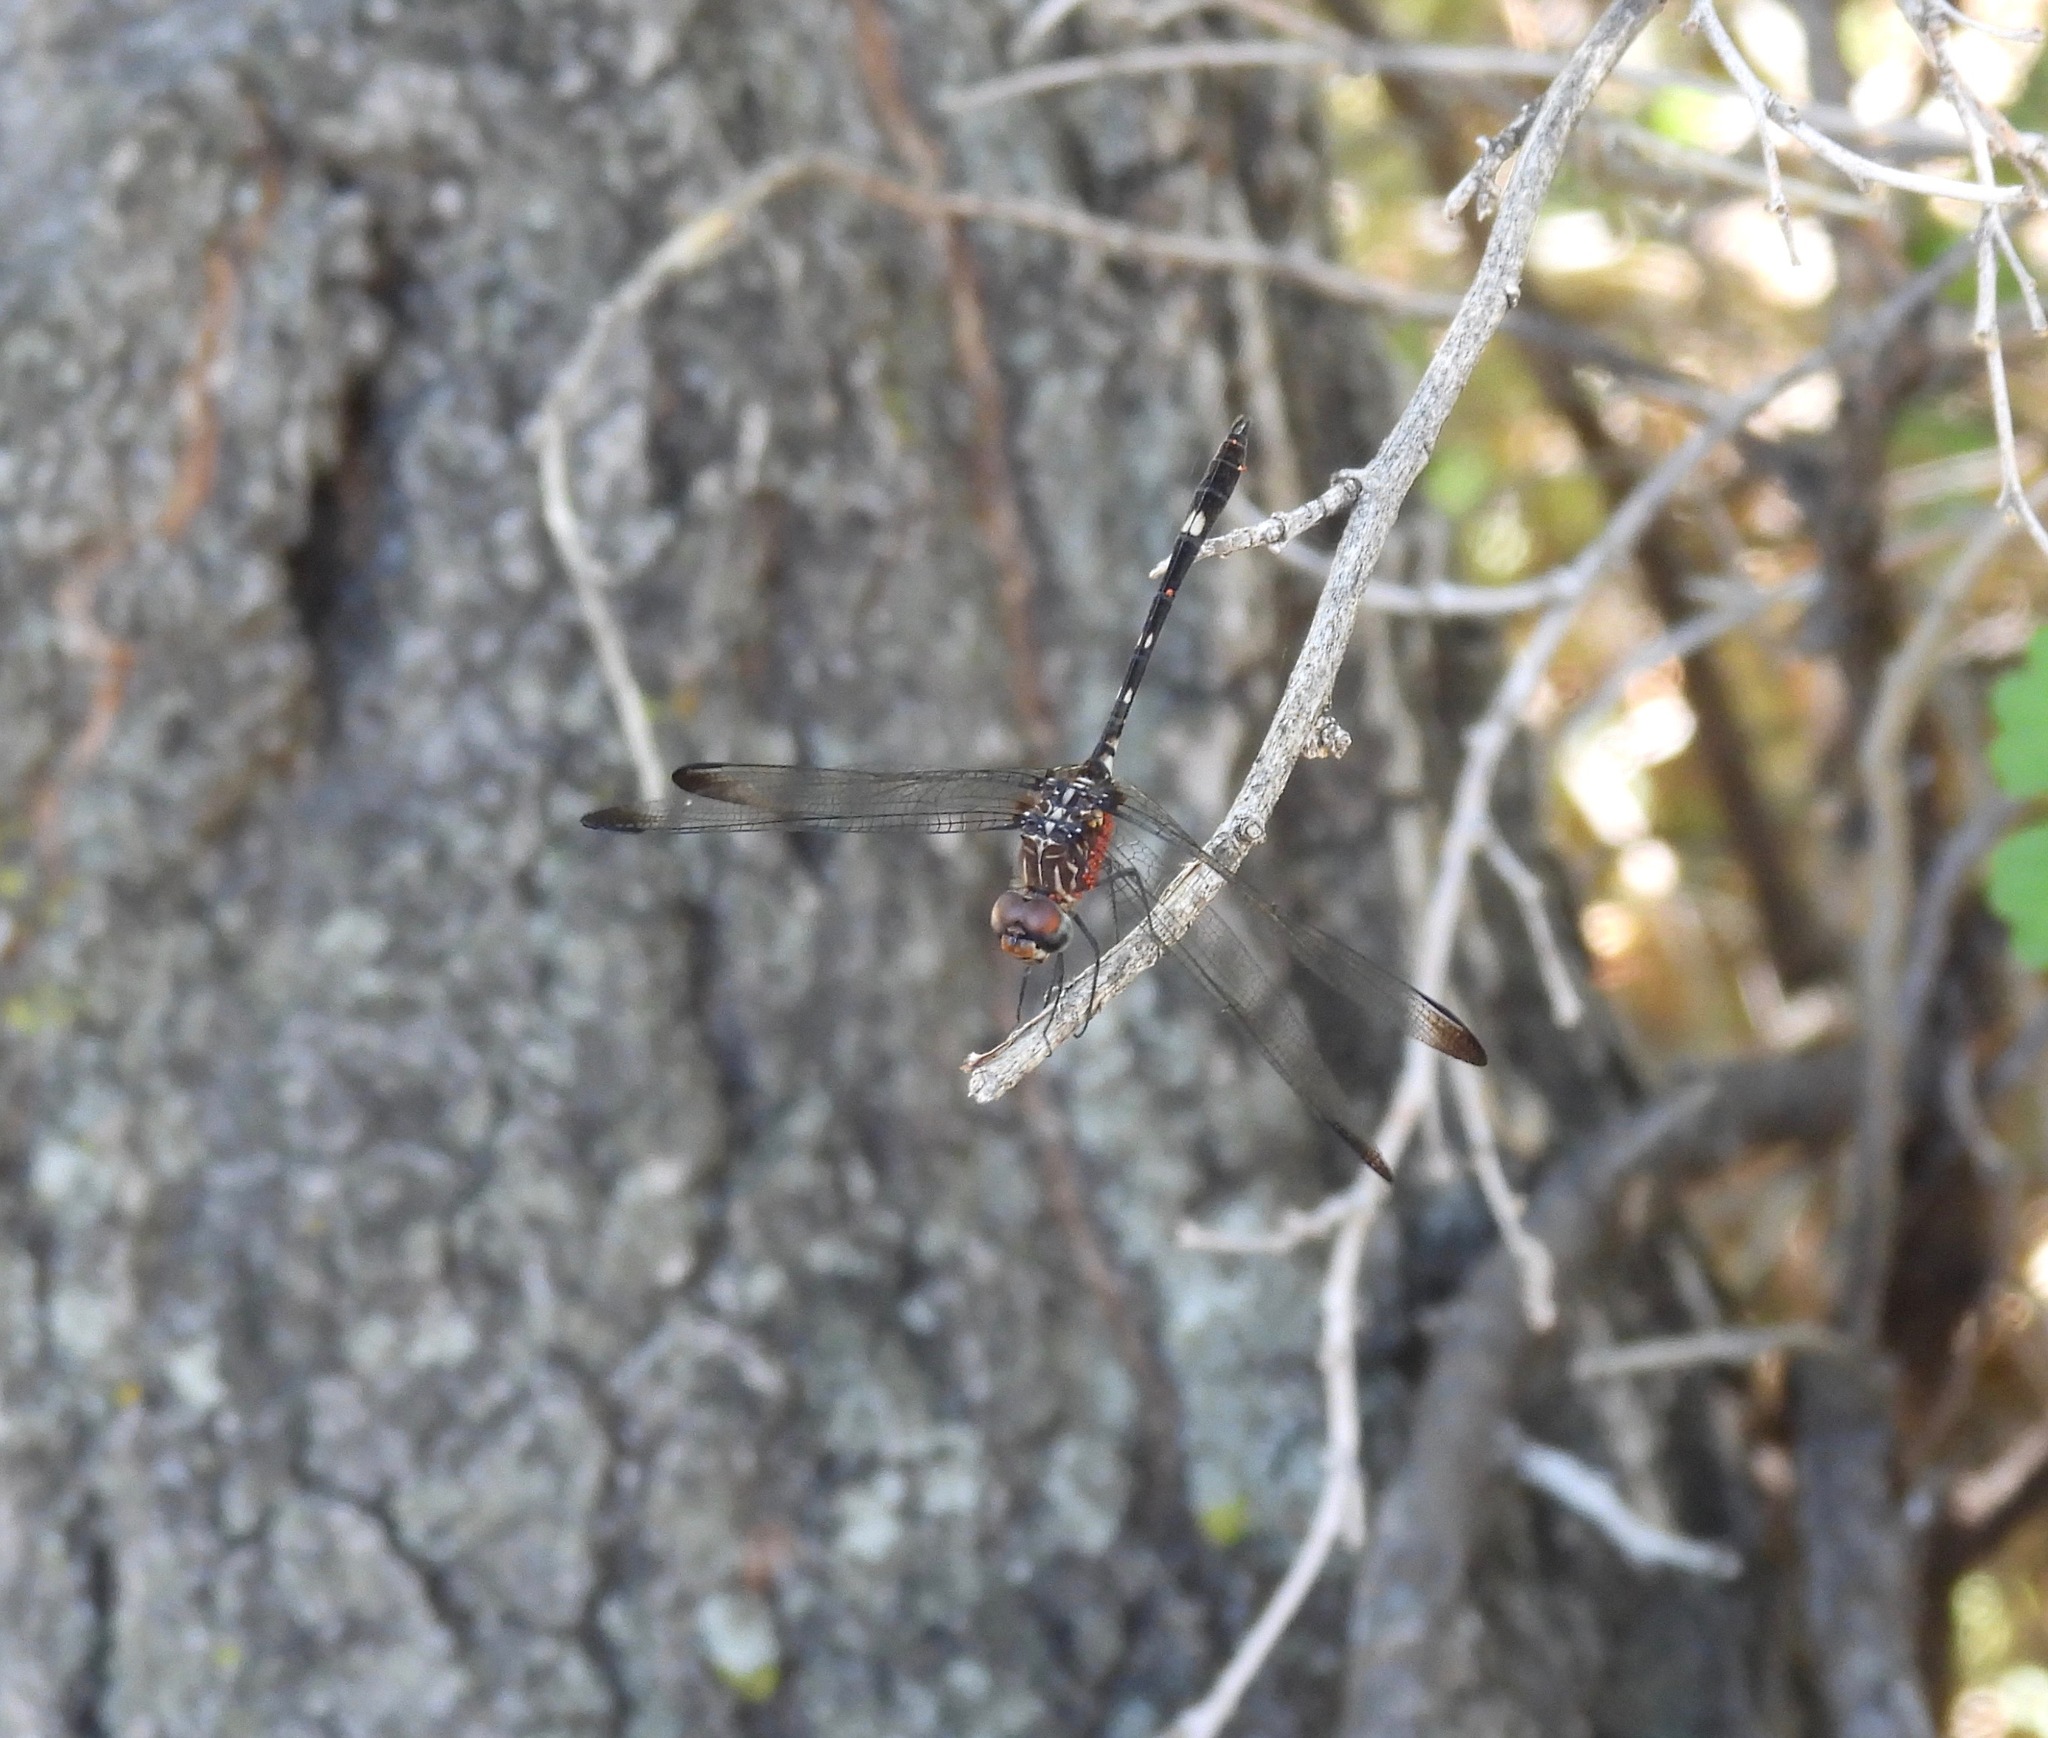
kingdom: Animalia
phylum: Arthropoda
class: Insecta
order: Odonata
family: Libellulidae
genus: Dythemis
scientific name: Dythemis velox
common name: Swift setwing
